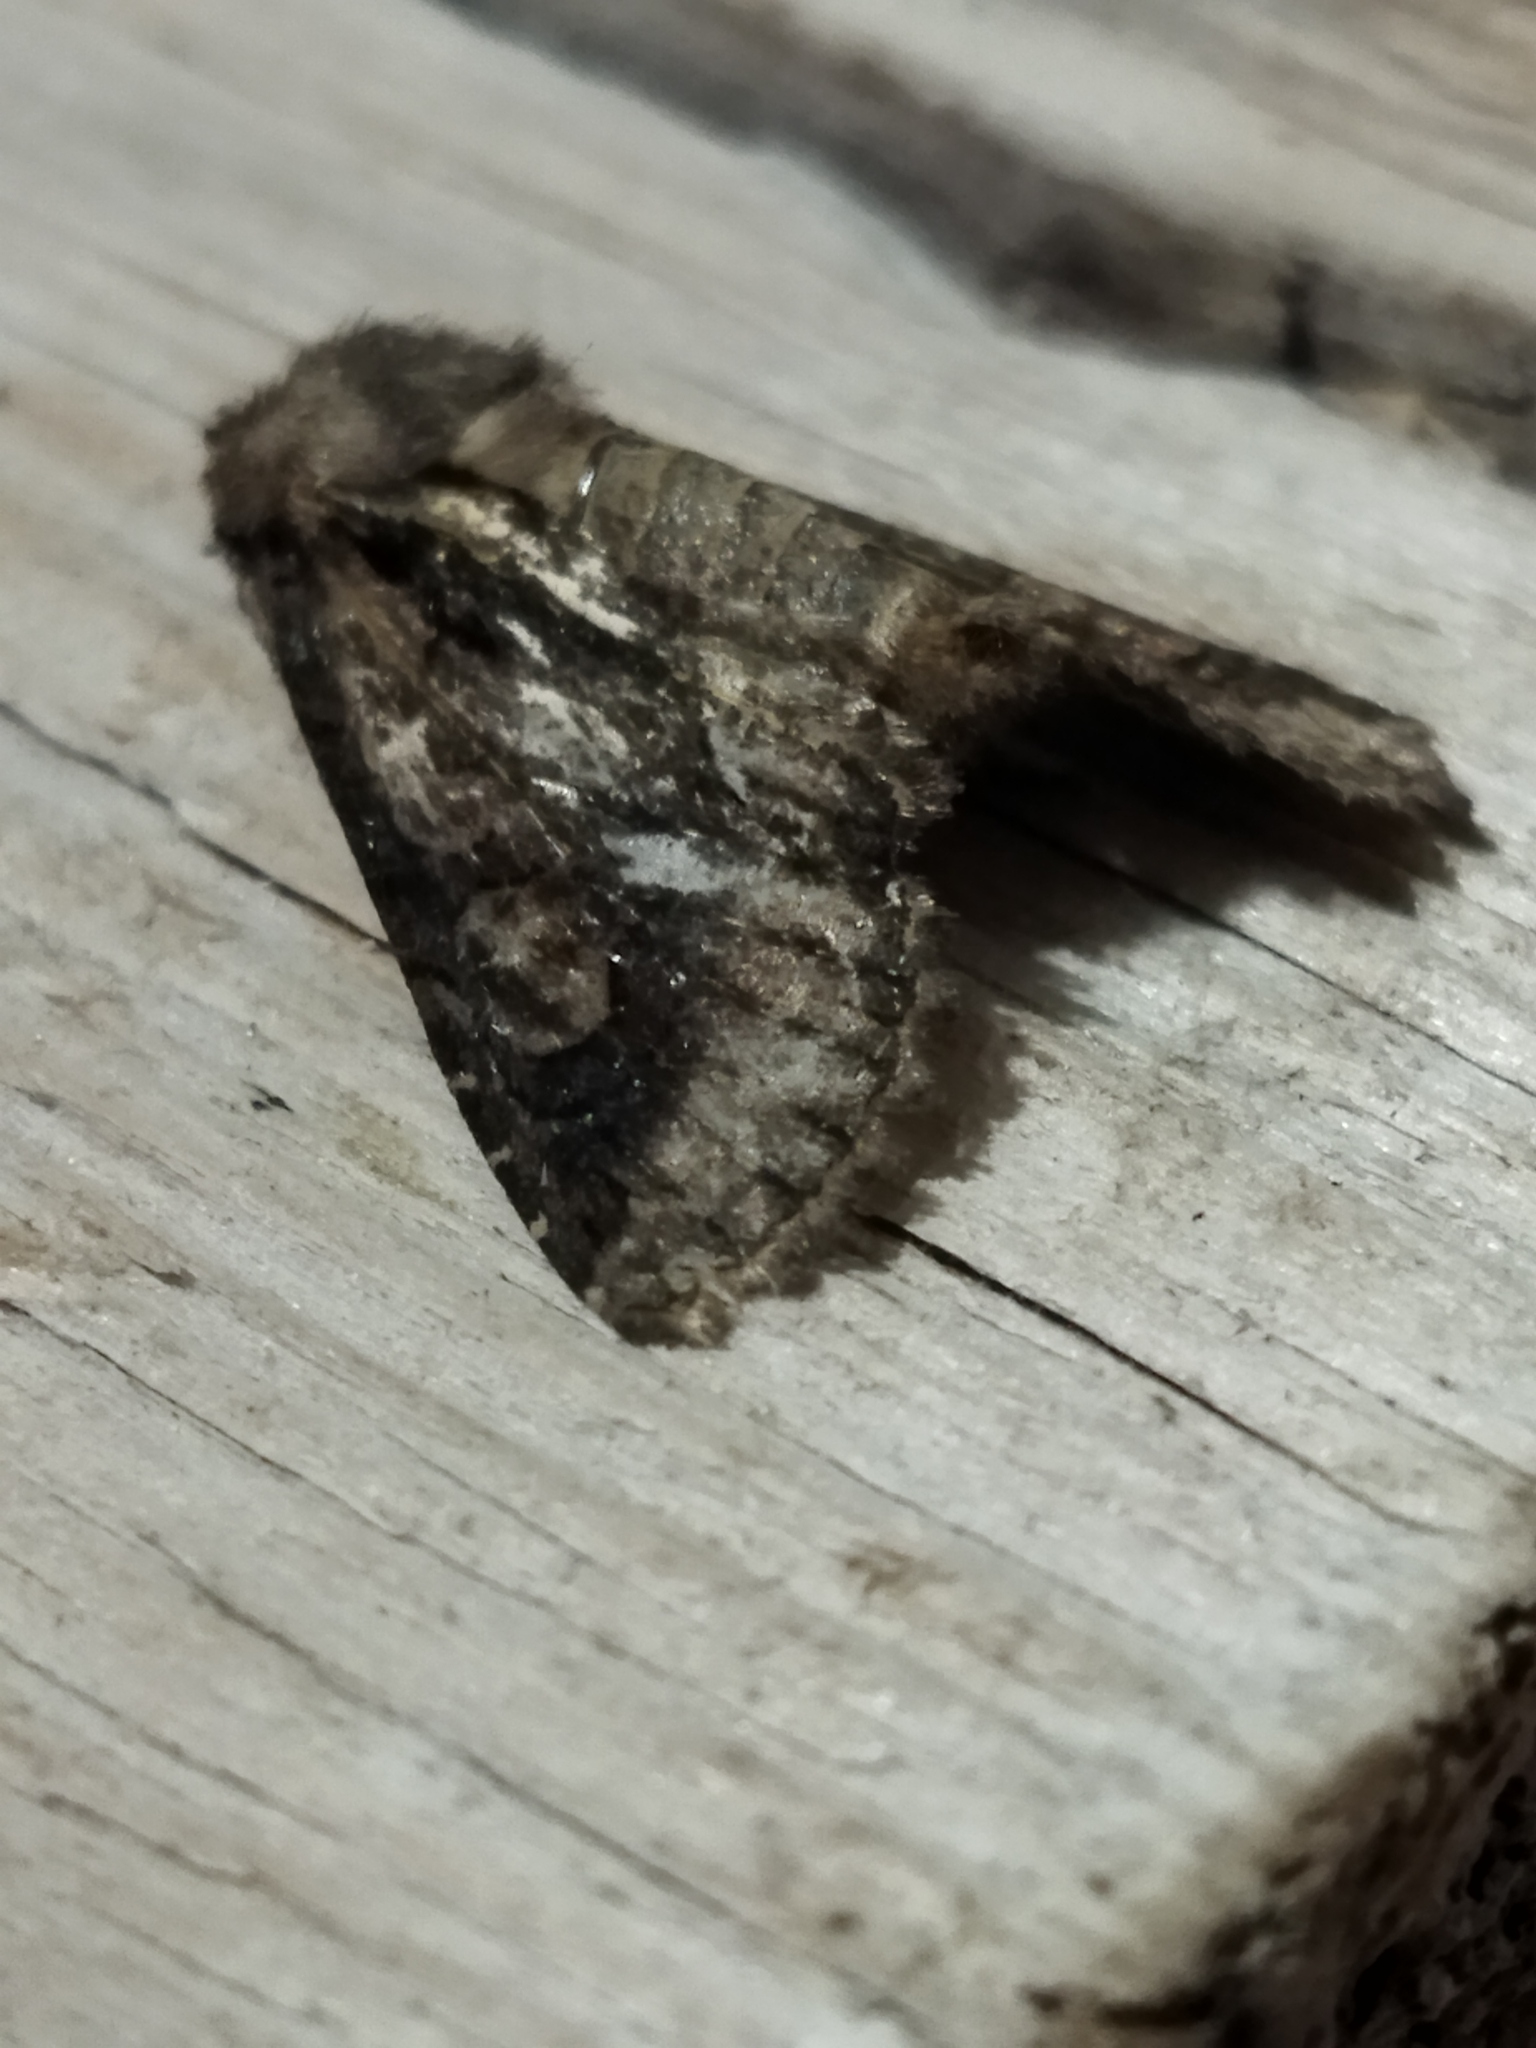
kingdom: Animalia
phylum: Arthropoda
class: Insecta
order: Lepidoptera
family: Noctuidae
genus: Allophyes
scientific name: Allophyes oxyacanthae
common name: Green-brindled crescent
